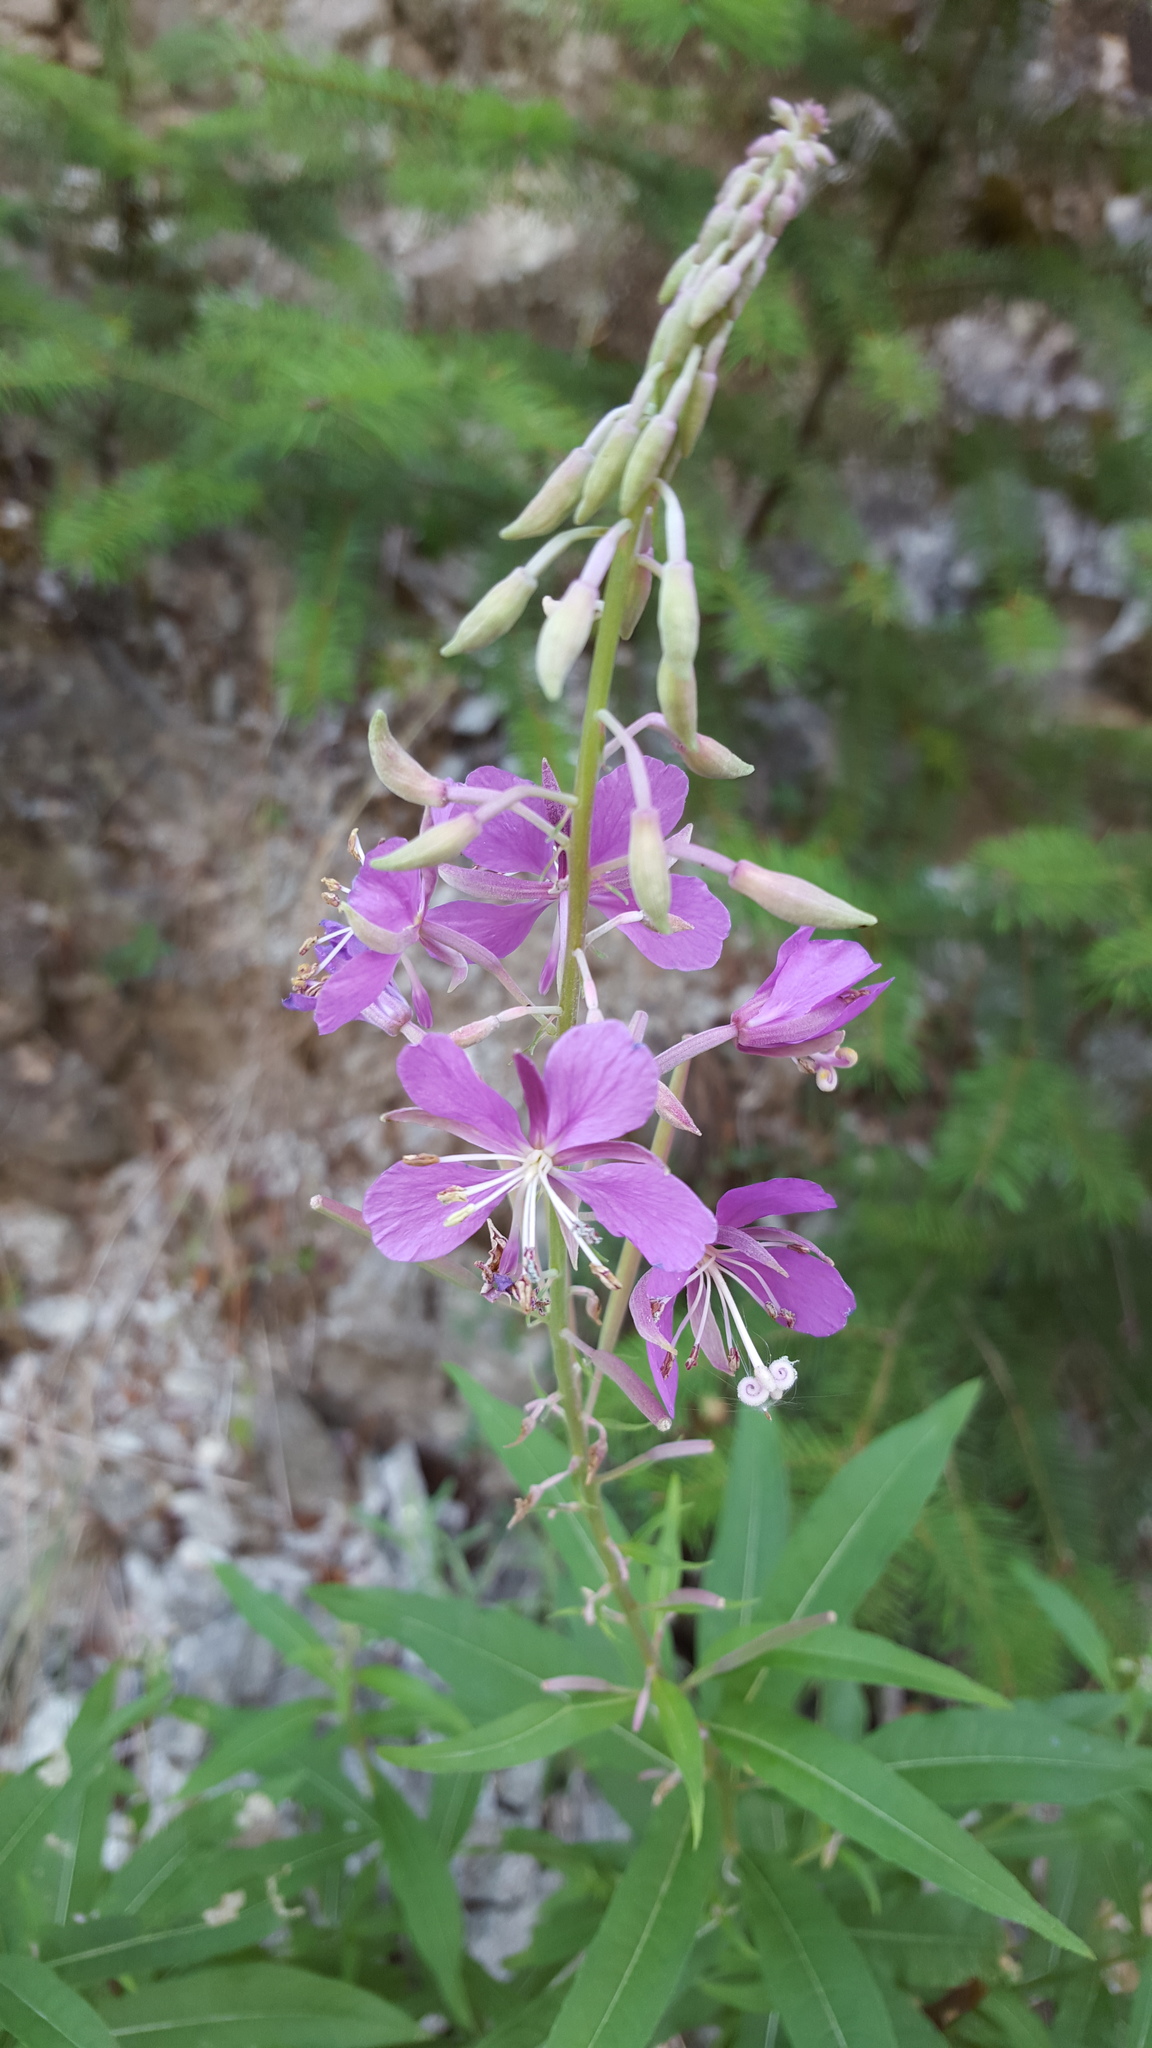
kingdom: Plantae
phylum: Tracheophyta
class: Magnoliopsida
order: Myrtales
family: Onagraceae
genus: Chamaenerion
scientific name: Chamaenerion angustifolium
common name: Fireweed
